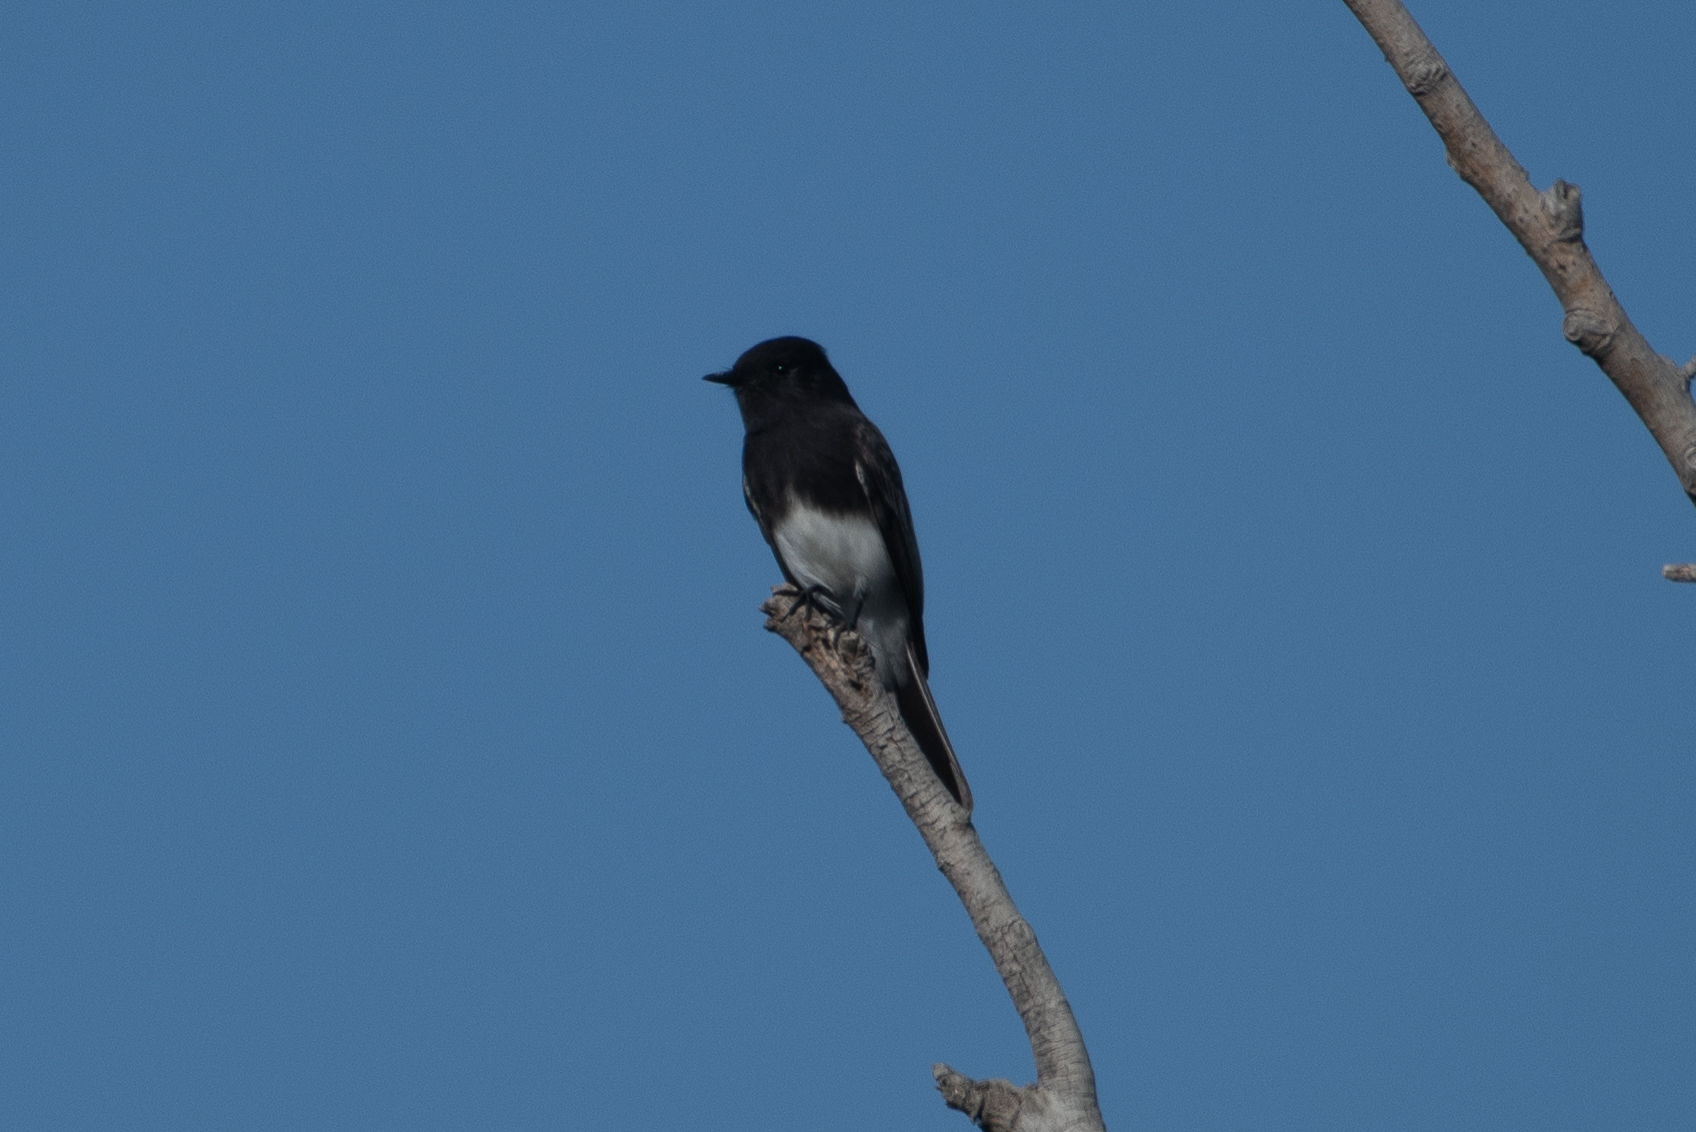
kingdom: Animalia
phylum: Chordata
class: Aves
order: Passeriformes
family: Tyrannidae
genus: Sayornis
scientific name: Sayornis nigricans
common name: Black phoebe
